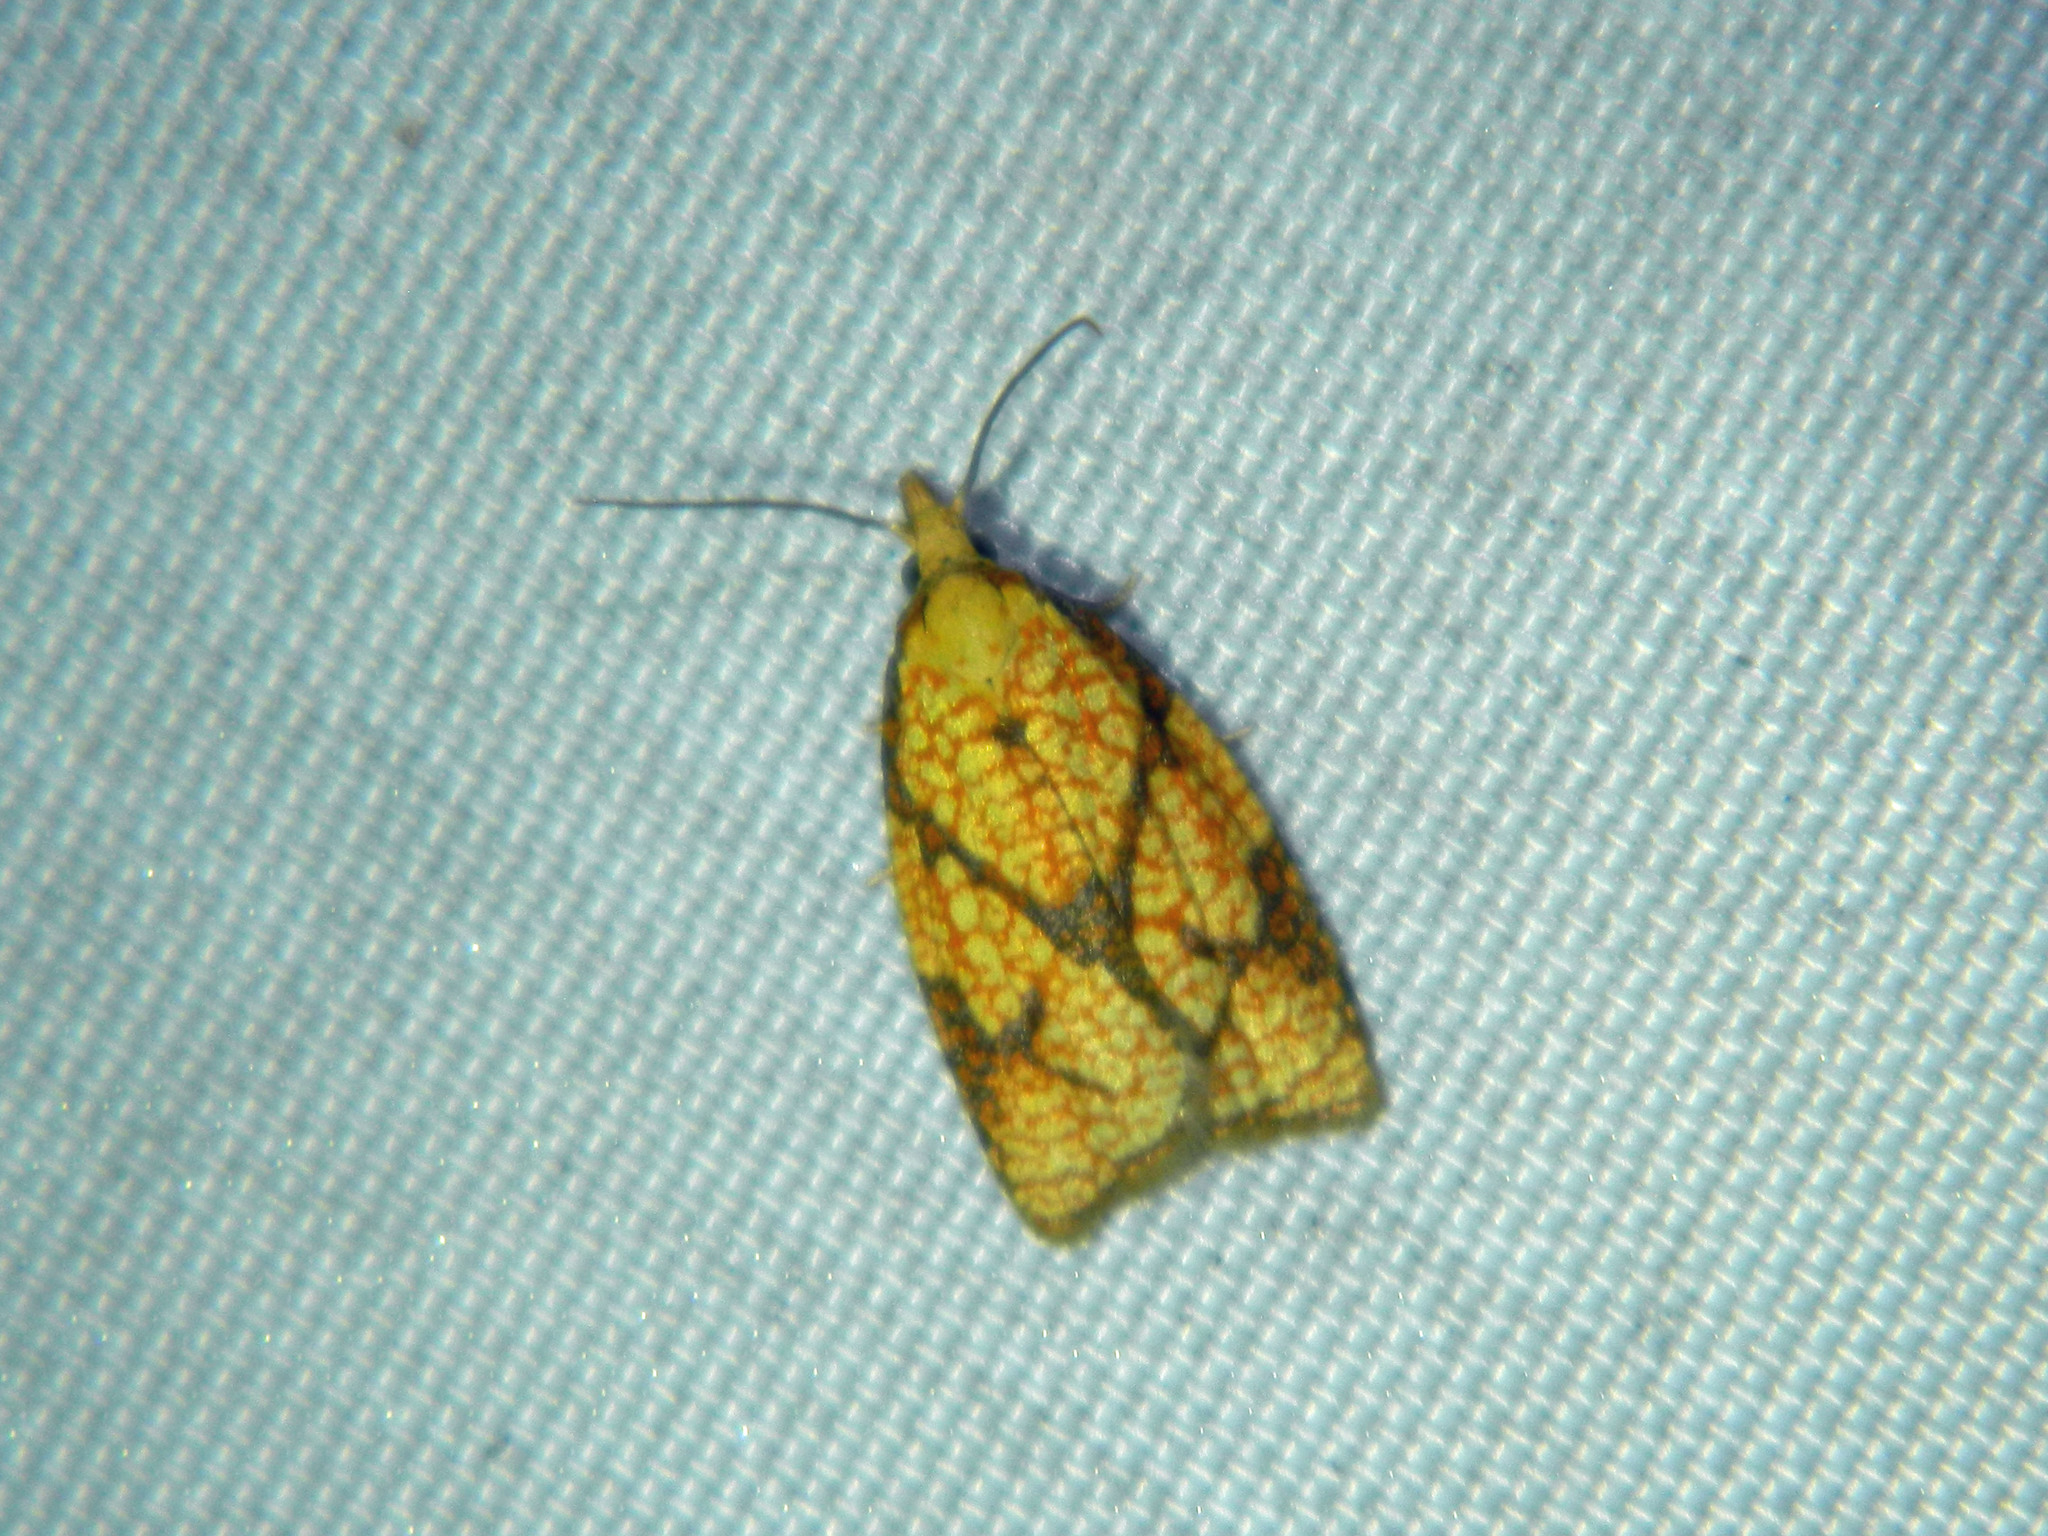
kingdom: Animalia
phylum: Arthropoda
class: Insecta
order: Lepidoptera
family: Tortricidae
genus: Cenopis
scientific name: Cenopis reticulatana
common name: Reticulated fruitworm moth
